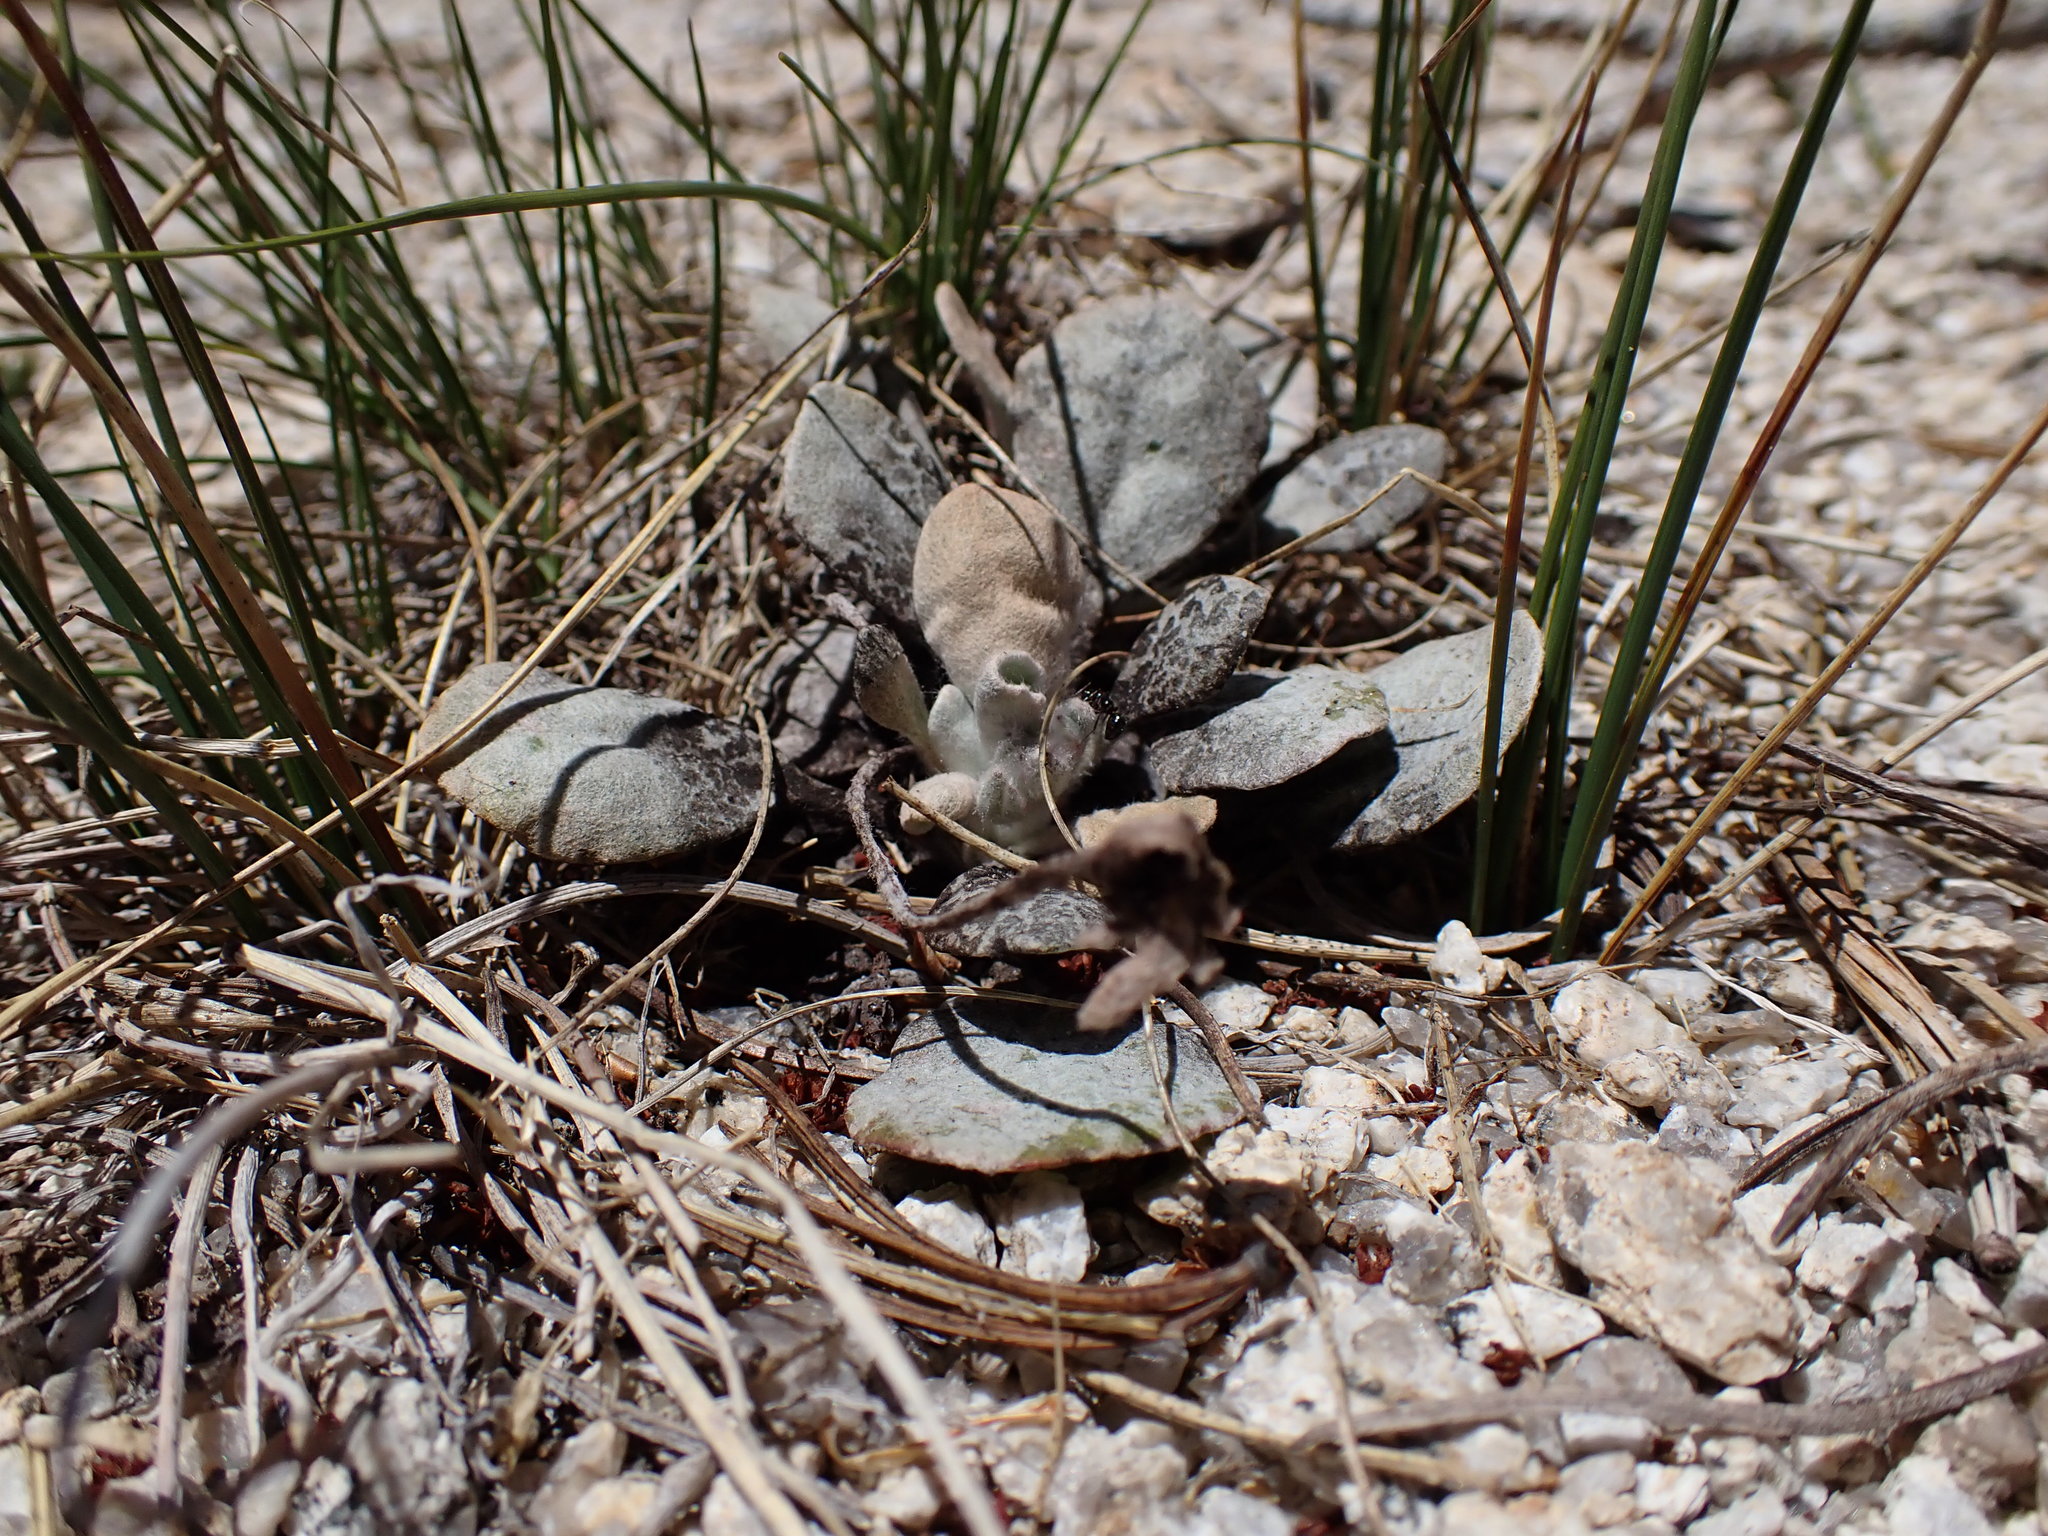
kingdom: Plantae
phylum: Tracheophyta
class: Magnoliopsida
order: Caryophyllales
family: Polygonaceae
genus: Eriogonum
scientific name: Eriogonum lobbii
